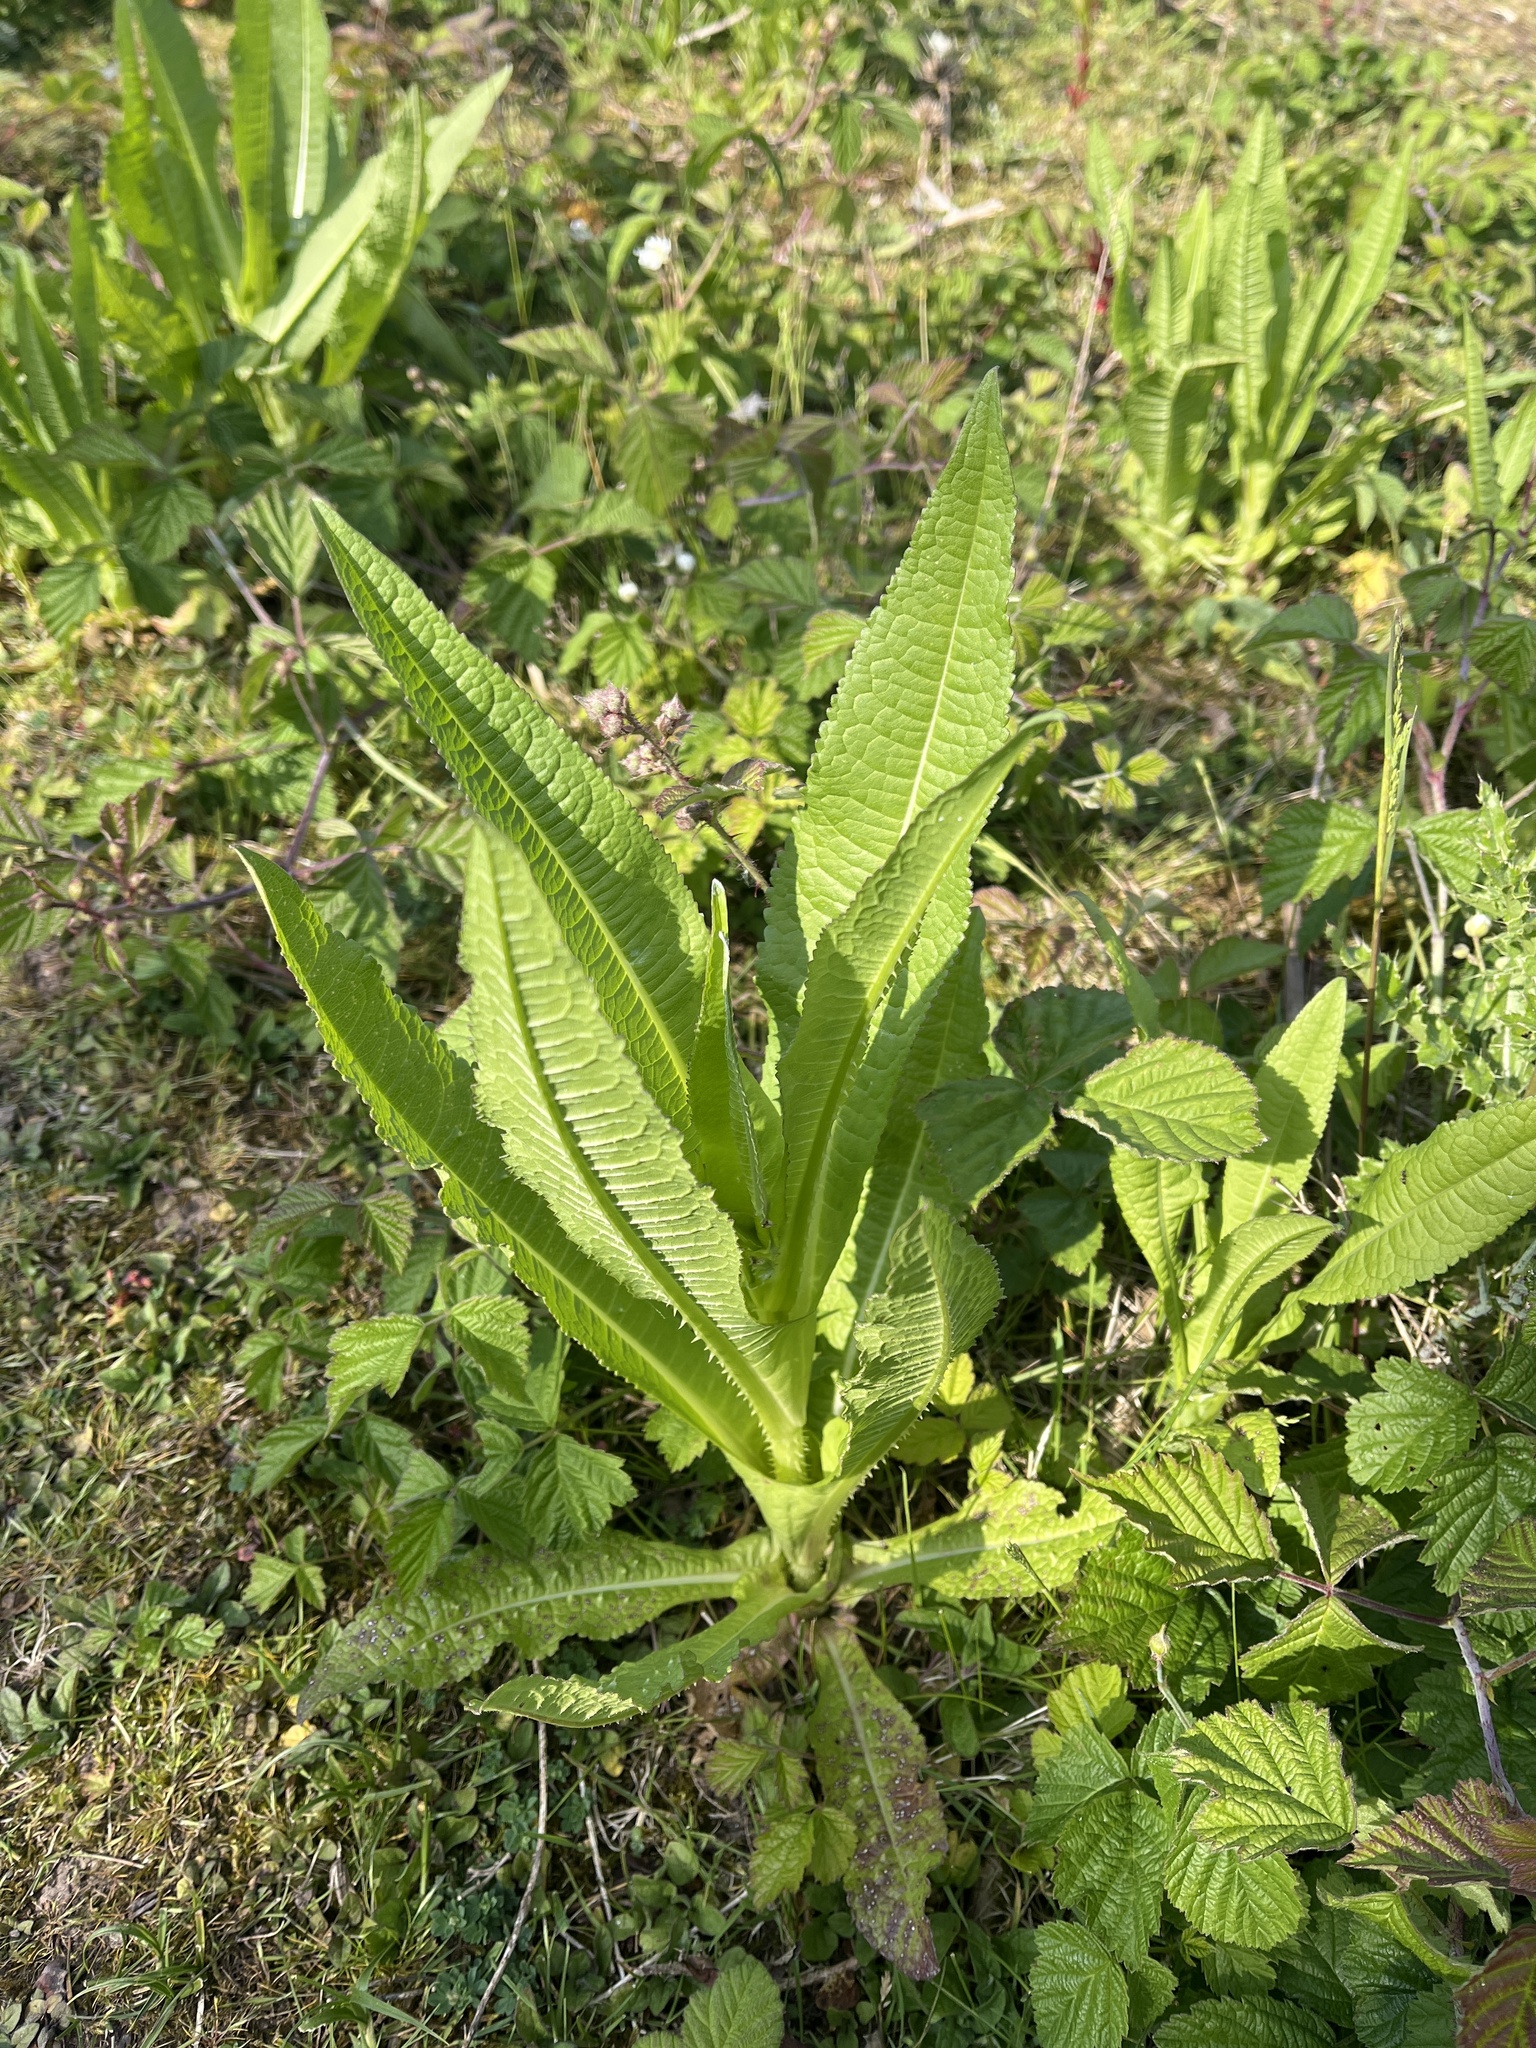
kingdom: Plantae
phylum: Tracheophyta
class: Magnoliopsida
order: Dipsacales
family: Caprifoliaceae
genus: Dipsacus
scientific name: Dipsacus fullonum
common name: Teasel
